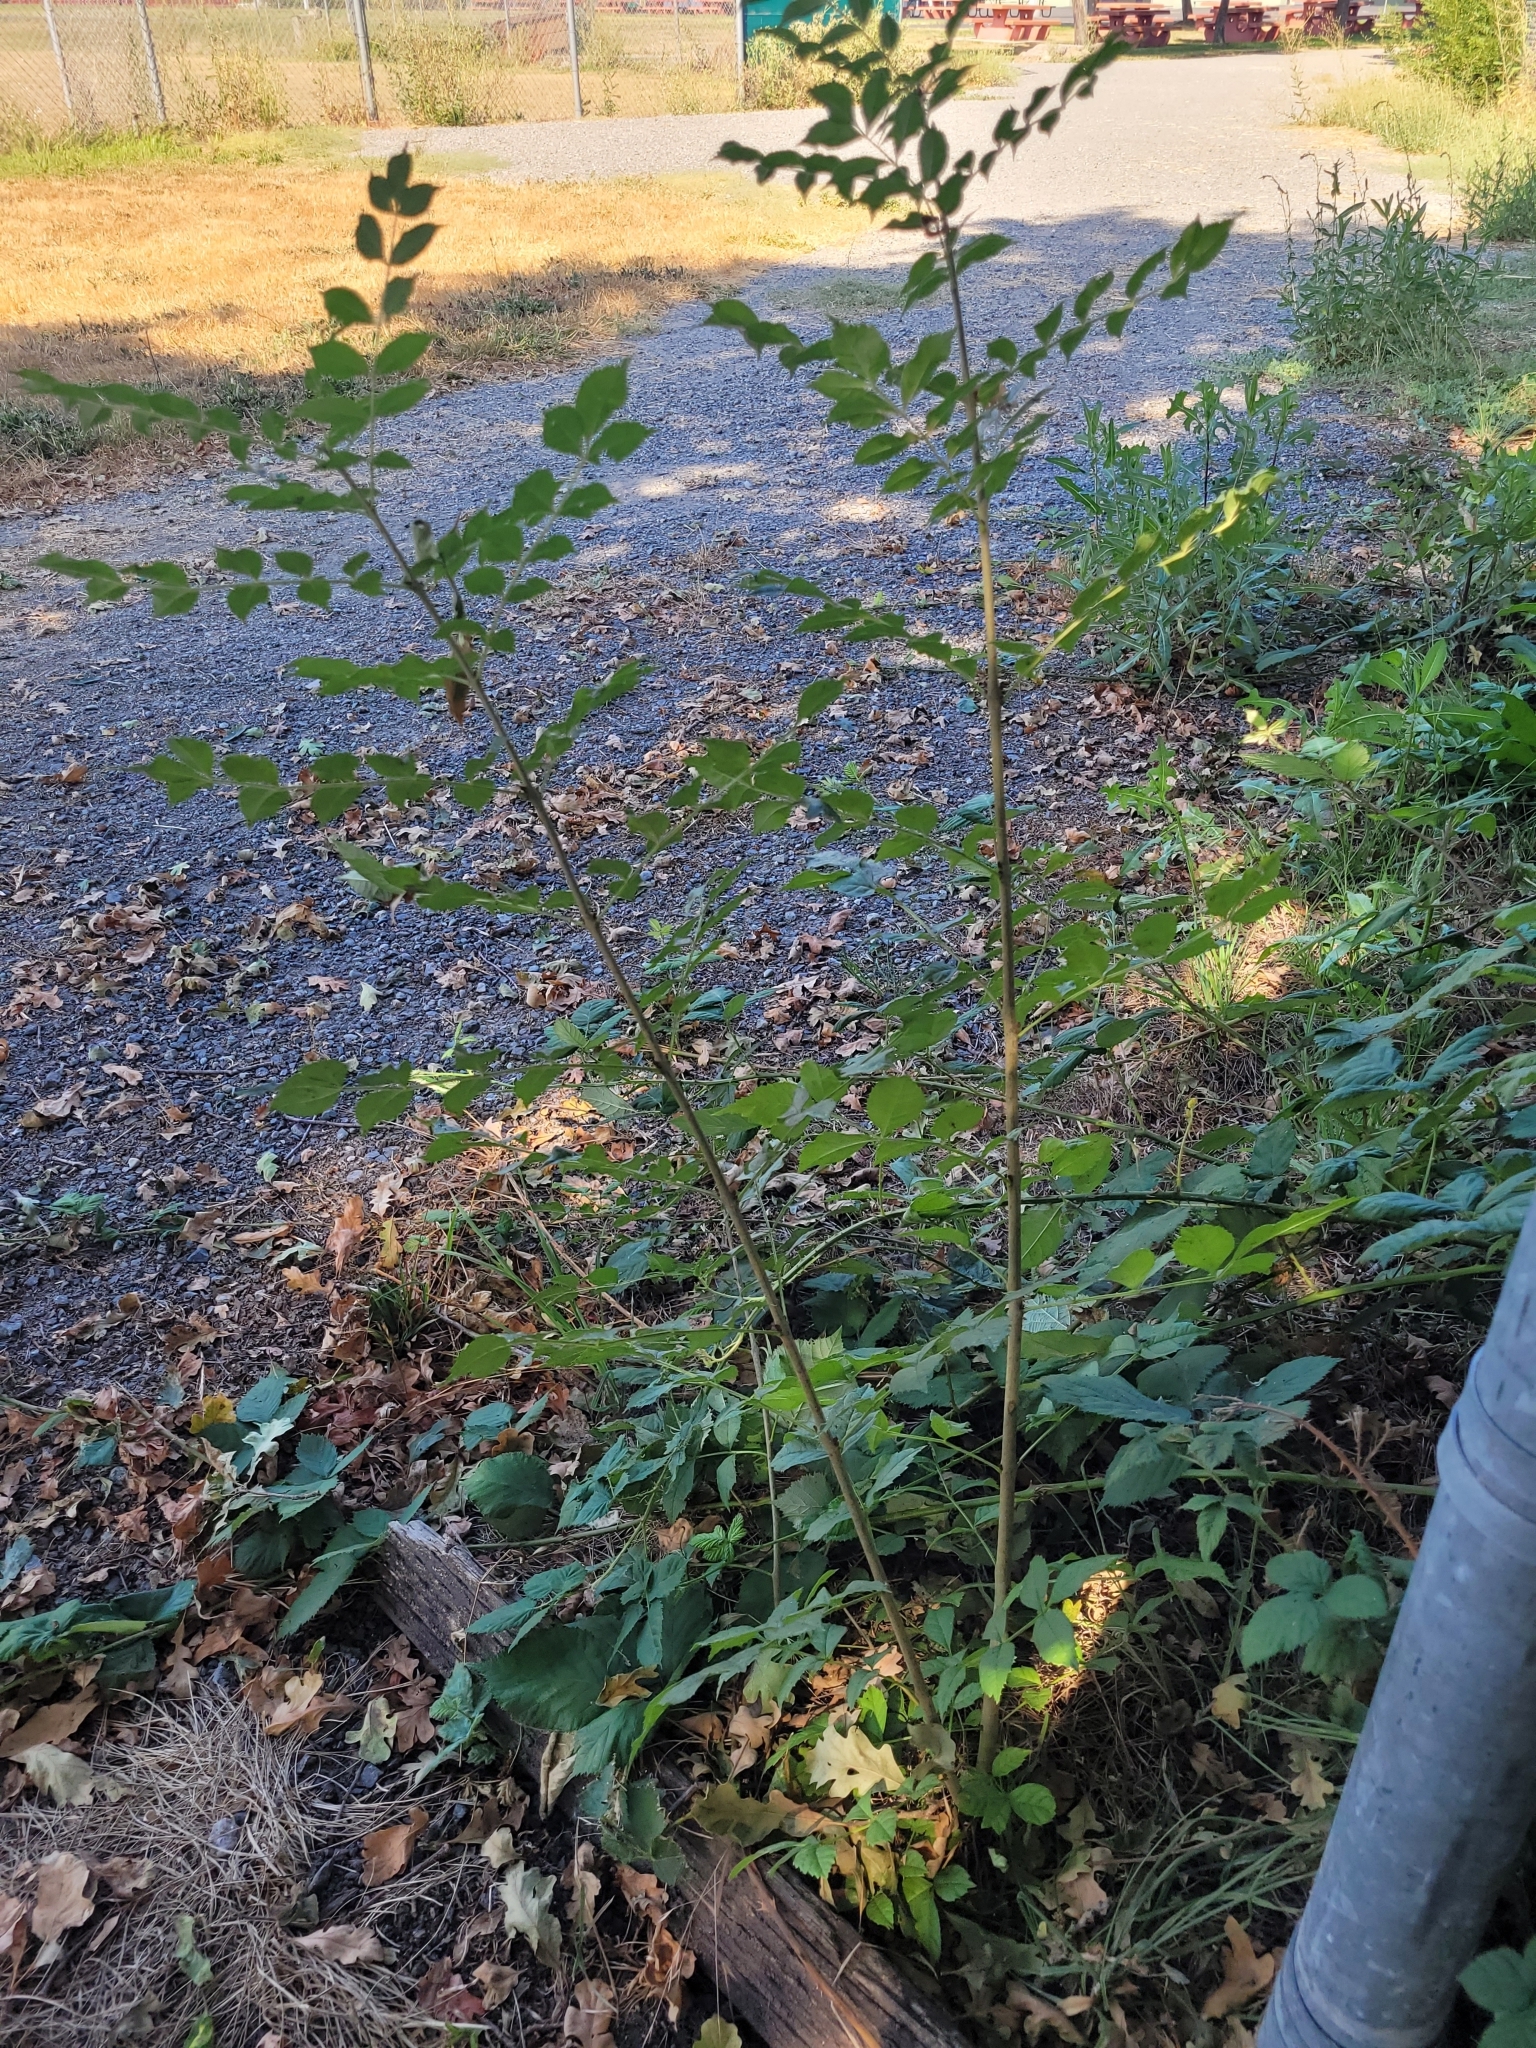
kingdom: Plantae
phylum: Tracheophyta
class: Magnoliopsida
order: Lamiales
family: Oleaceae
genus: Fraxinus
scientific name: Fraxinus latifolia
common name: Oregon ash
